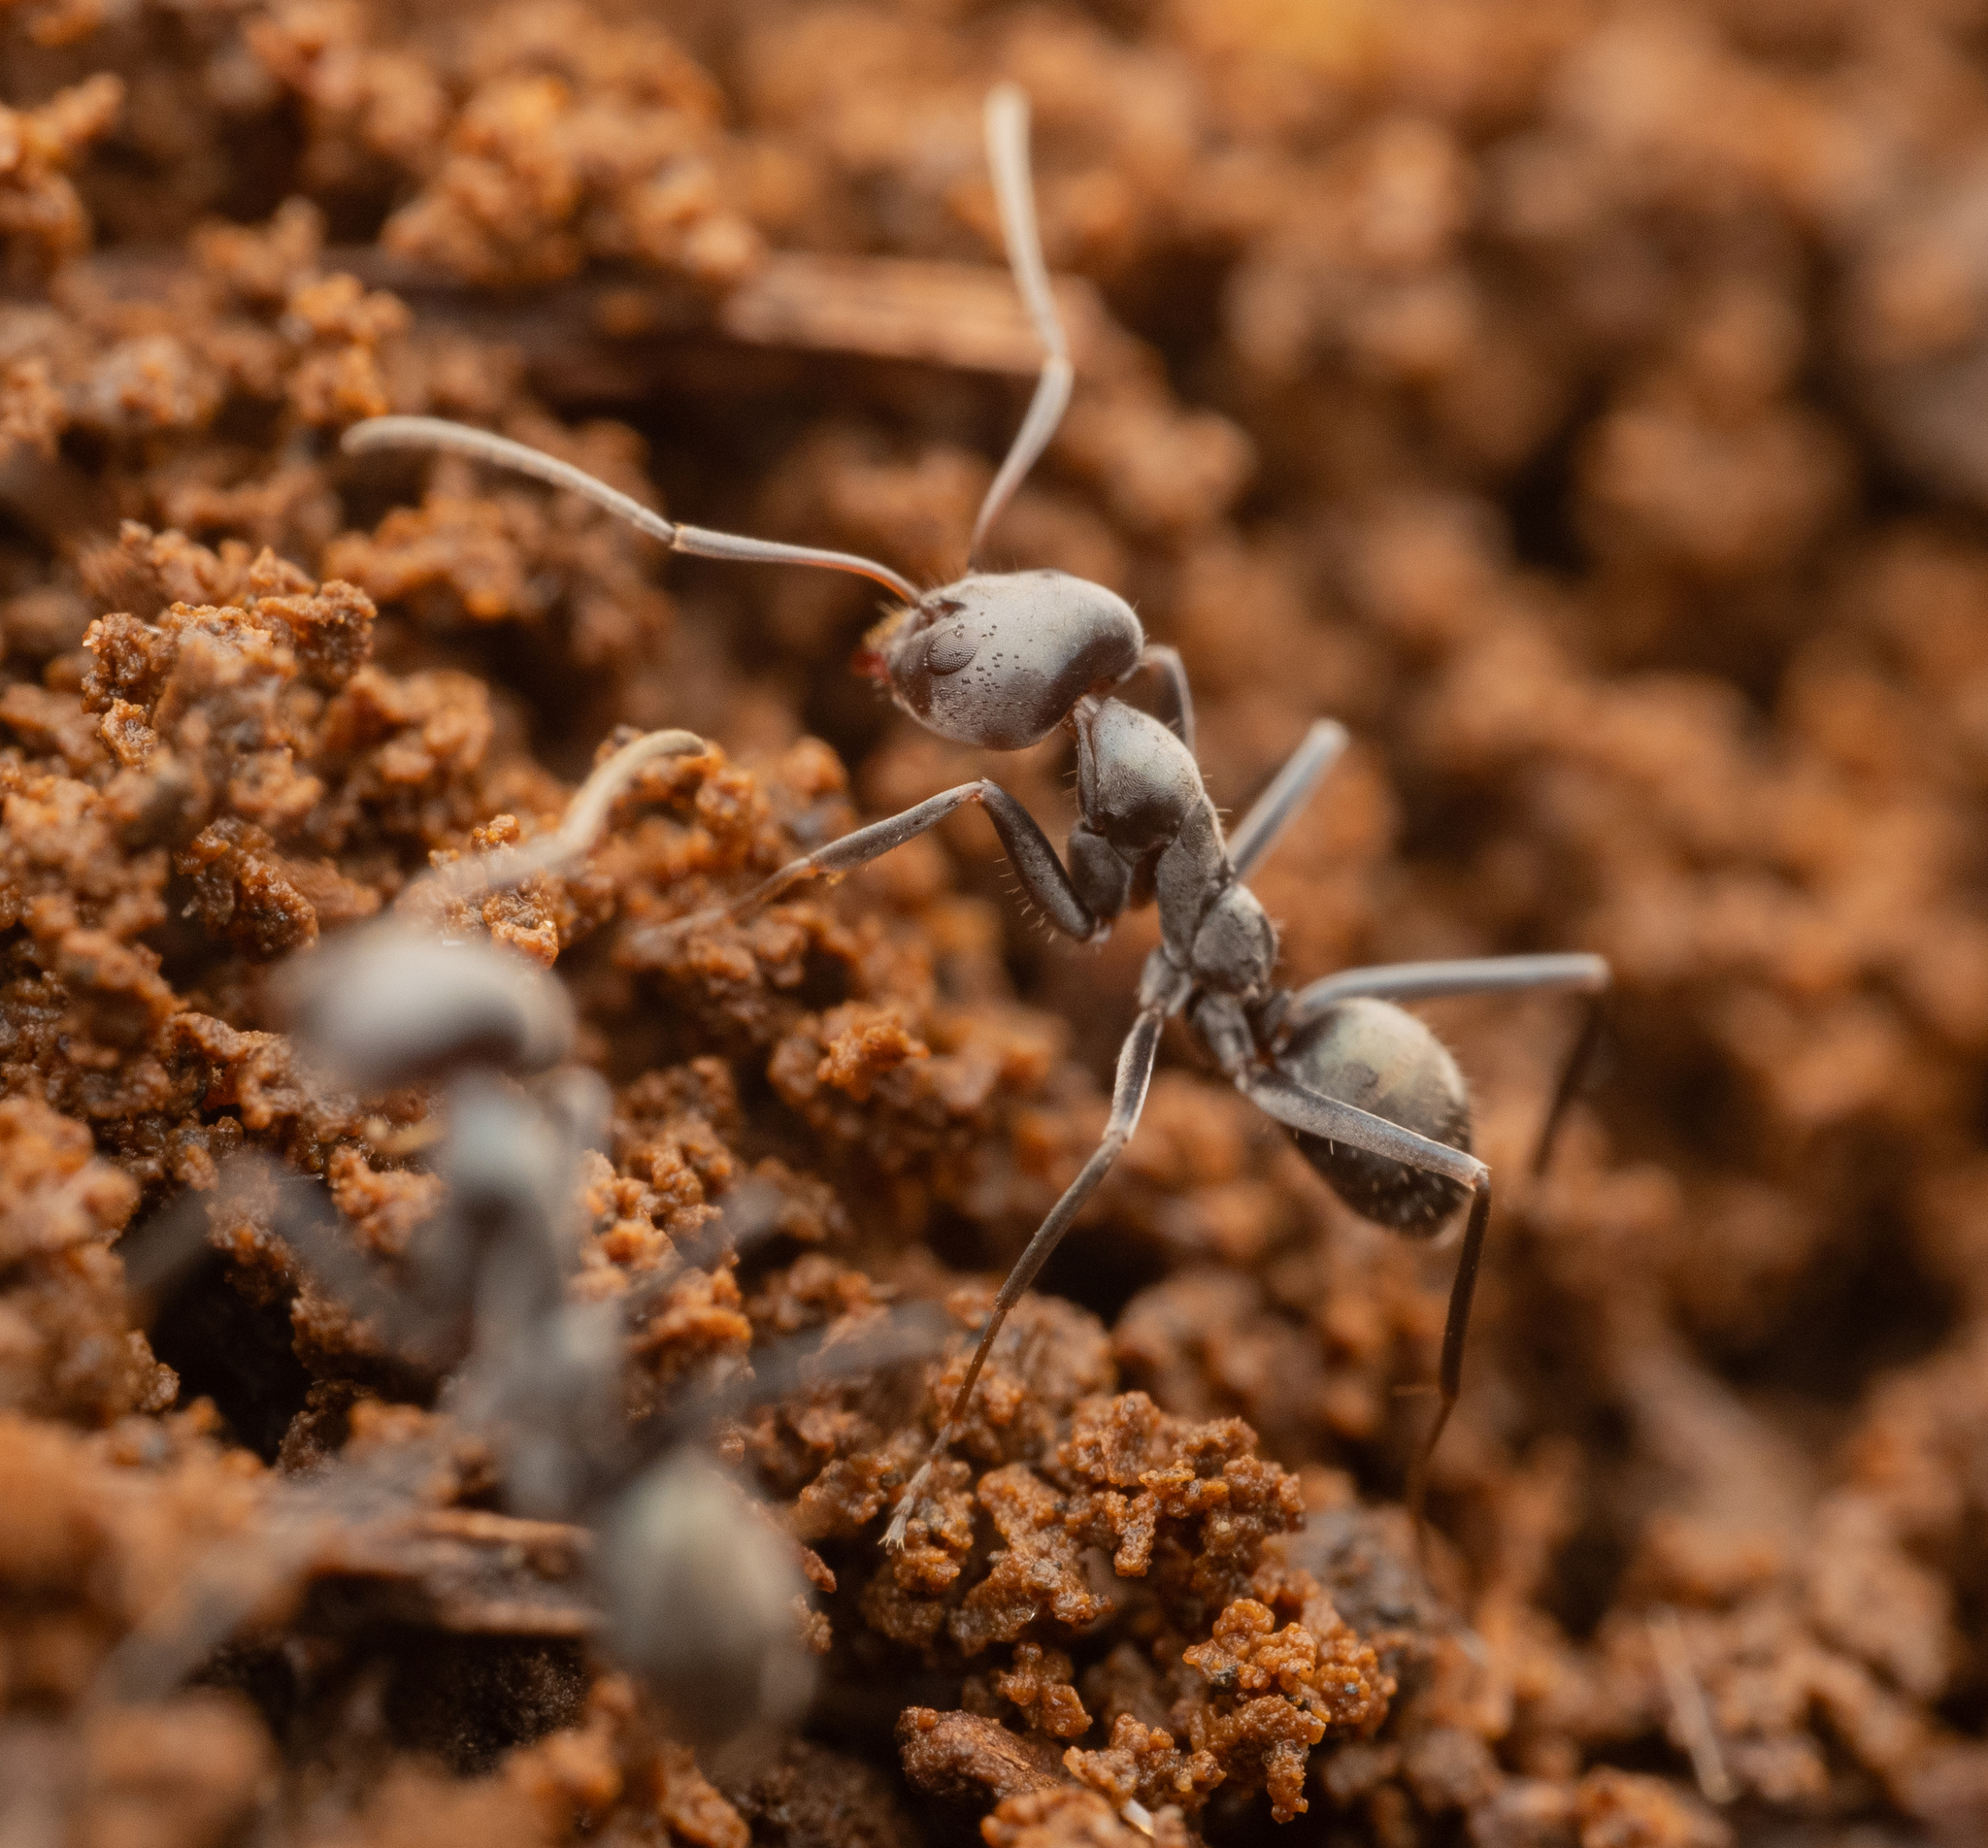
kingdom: Animalia
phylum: Arthropoda
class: Insecta
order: Hymenoptera
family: Formicidae
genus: Iridomyrmex
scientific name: Iridomyrmex anceps
